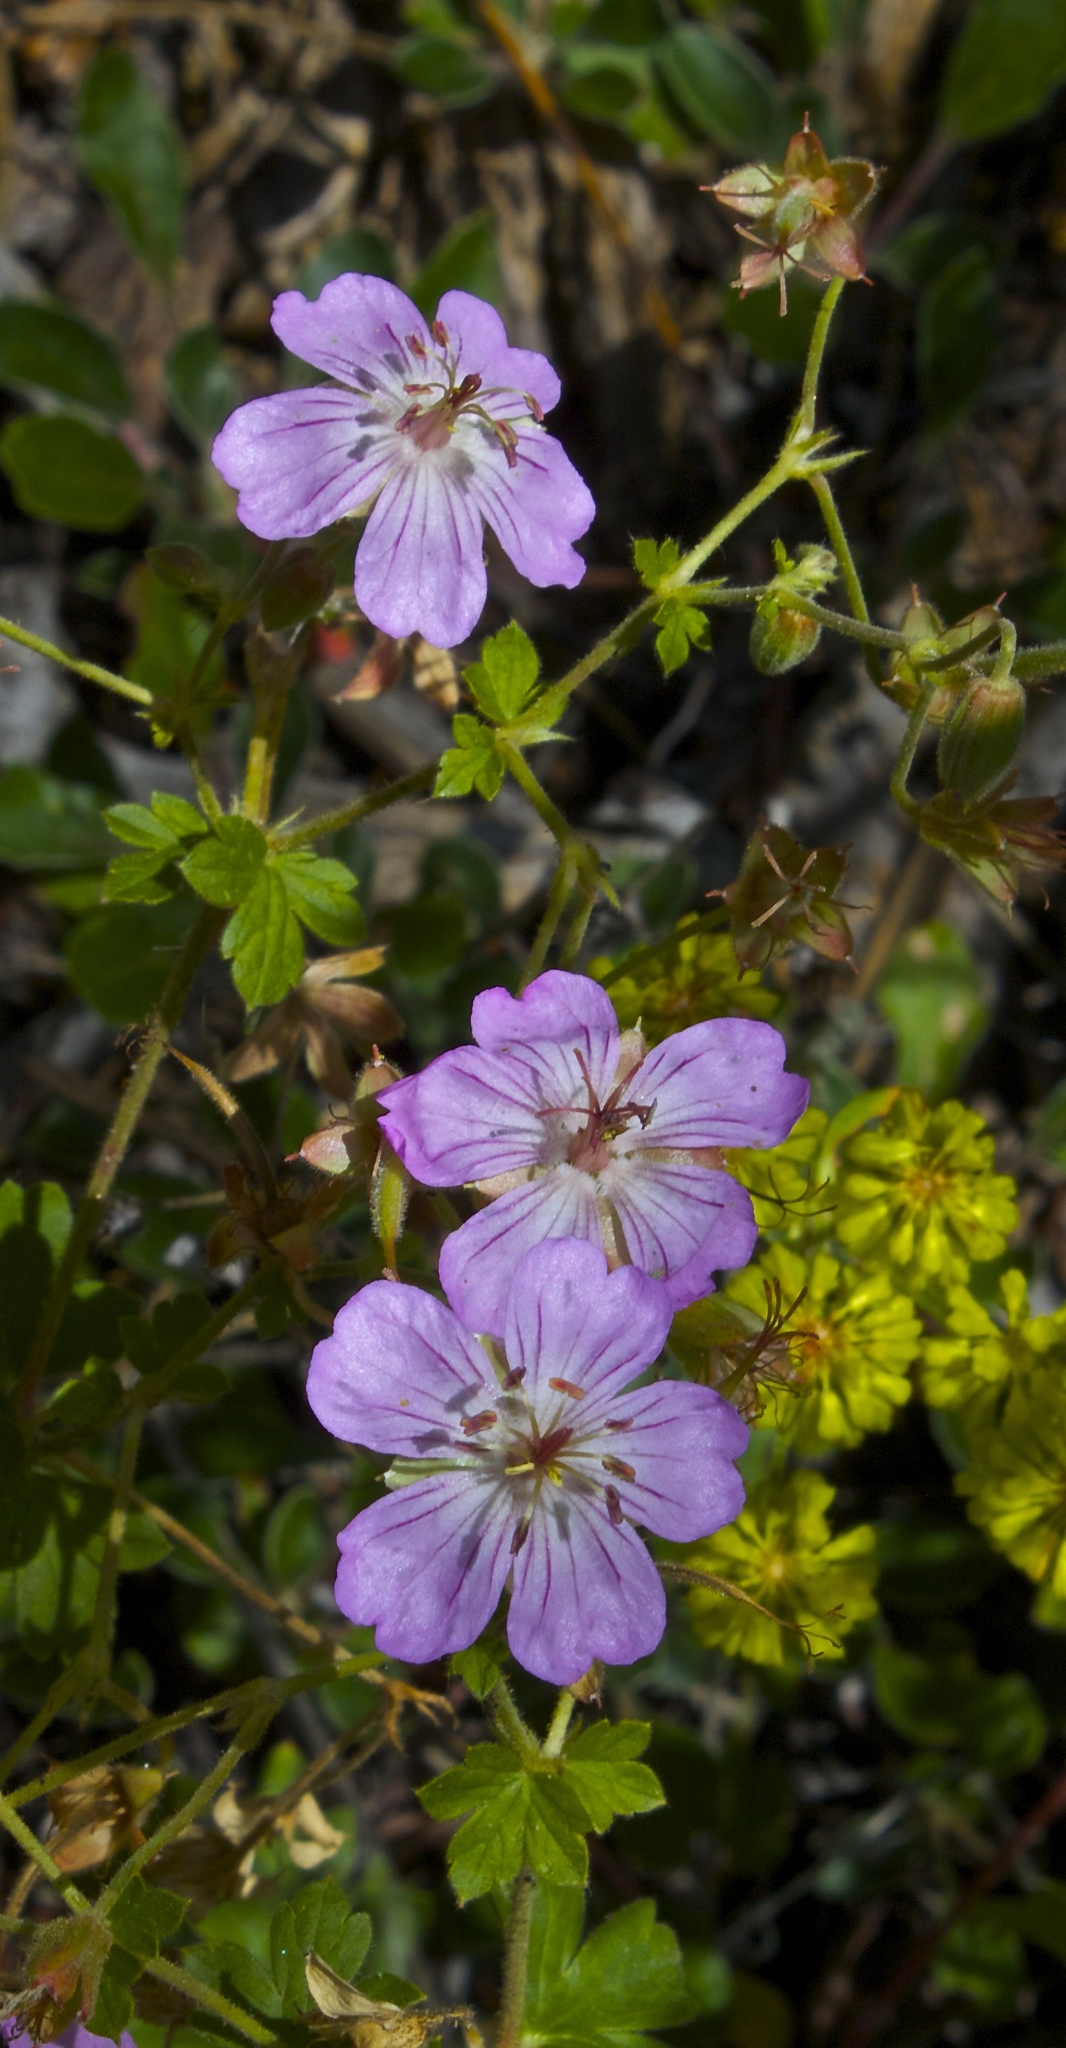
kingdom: Plantae
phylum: Tracheophyta
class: Magnoliopsida
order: Geraniales
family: Geraniaceae
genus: Geranium
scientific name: Geranium caespitosum
